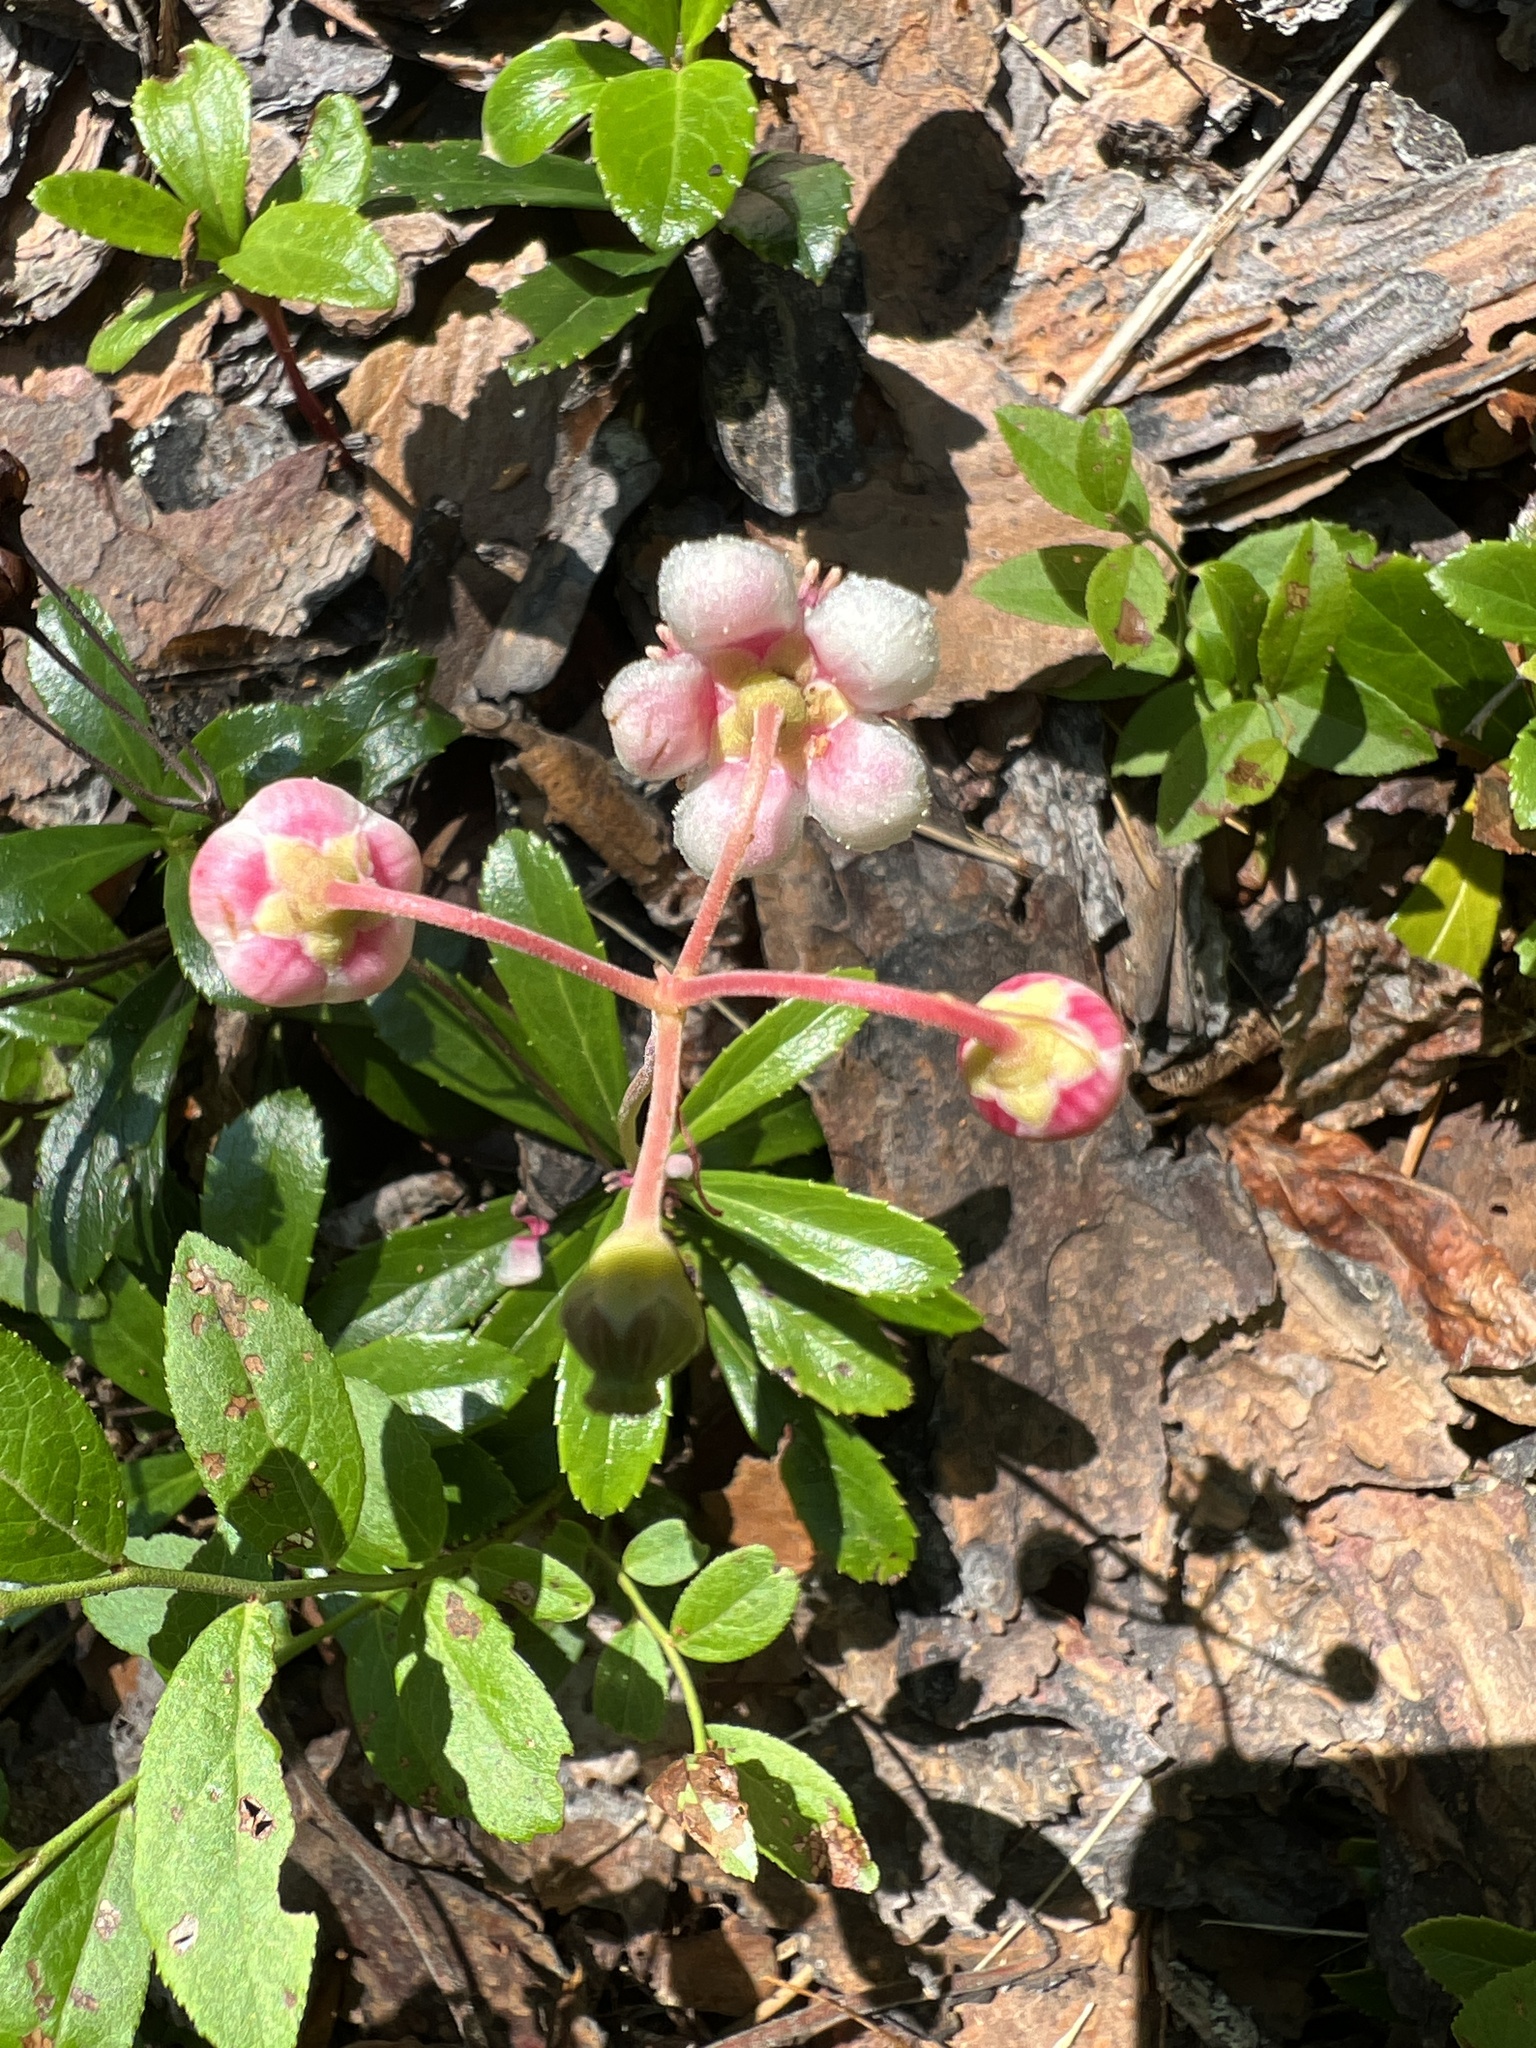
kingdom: Plantae
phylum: Tracheophyta
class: Magnoliopsida
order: Ericales
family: Ericaceae
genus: Chimaphila
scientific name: Chimaphila umbellata
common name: Pipsissewa
